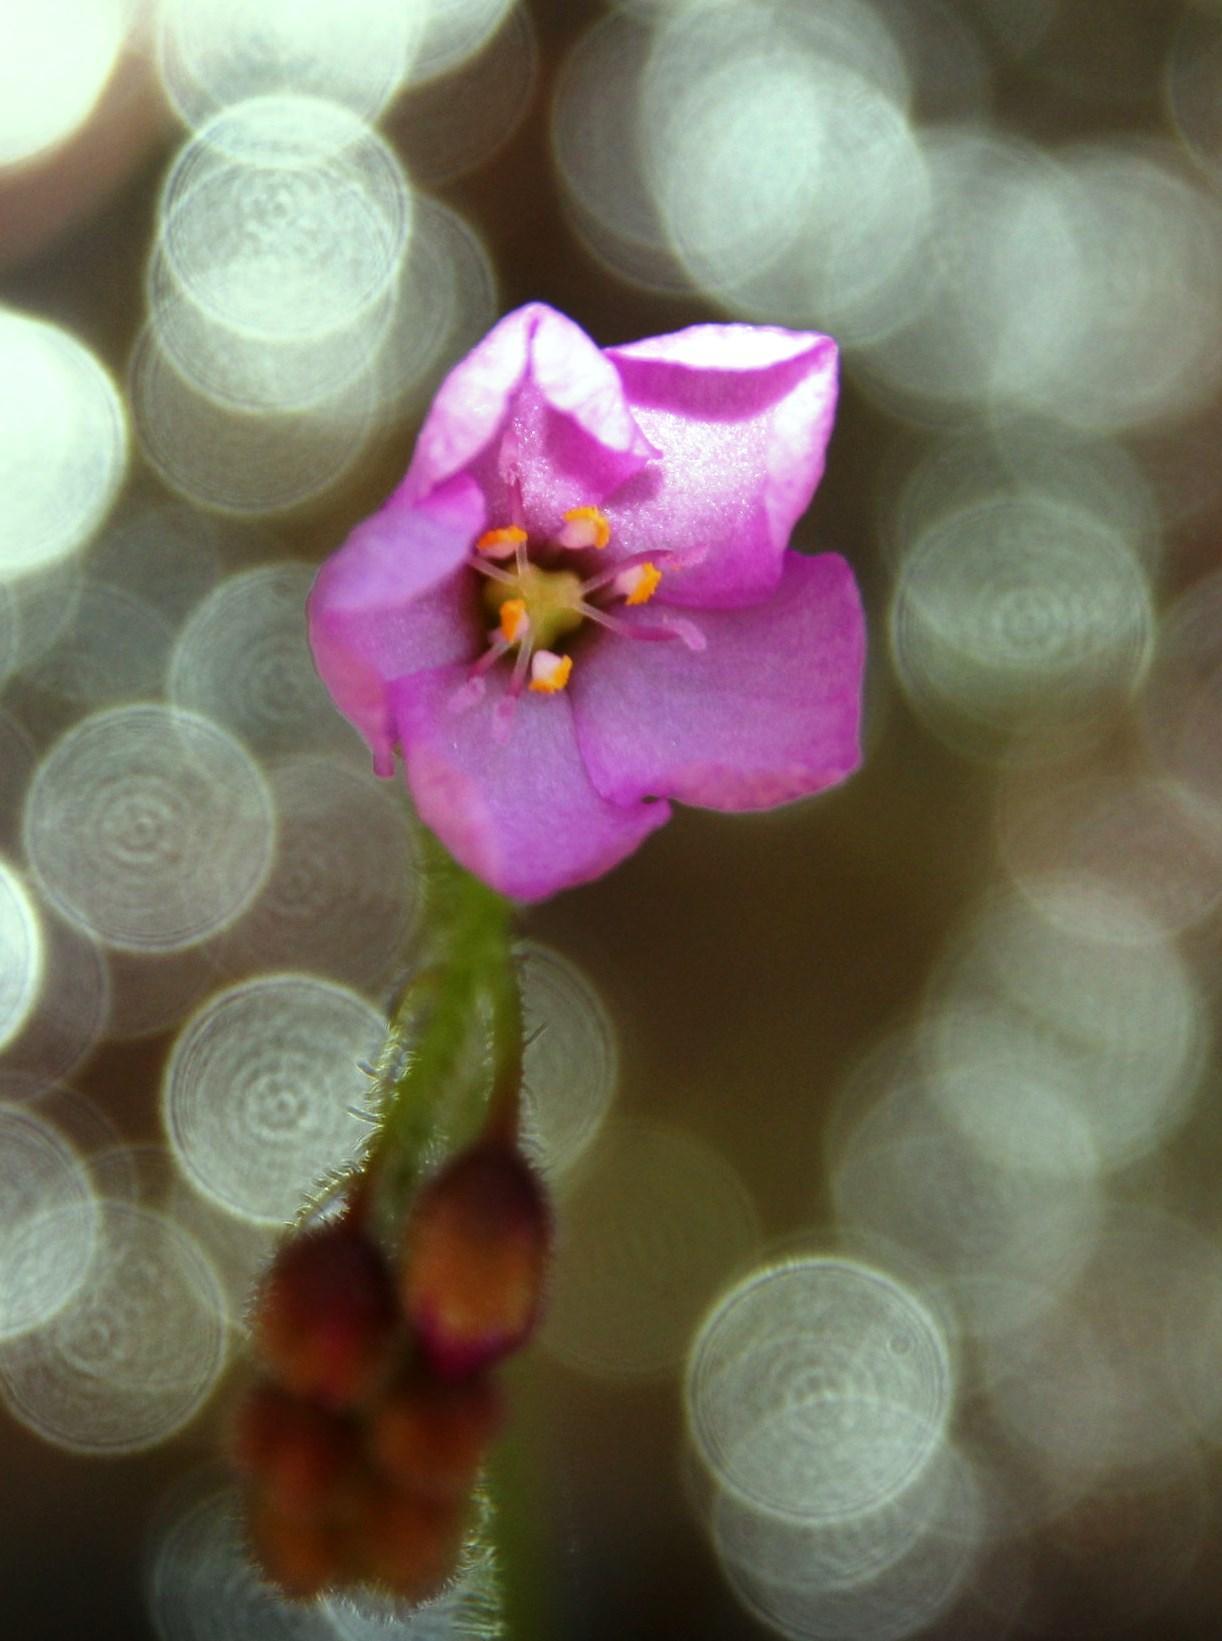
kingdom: Plantae
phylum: Tracheophyta
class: Magnoliopsida
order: Caryophyllales
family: Droseraceae
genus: Drosera
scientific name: Drosera capensis
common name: Cape sundew
